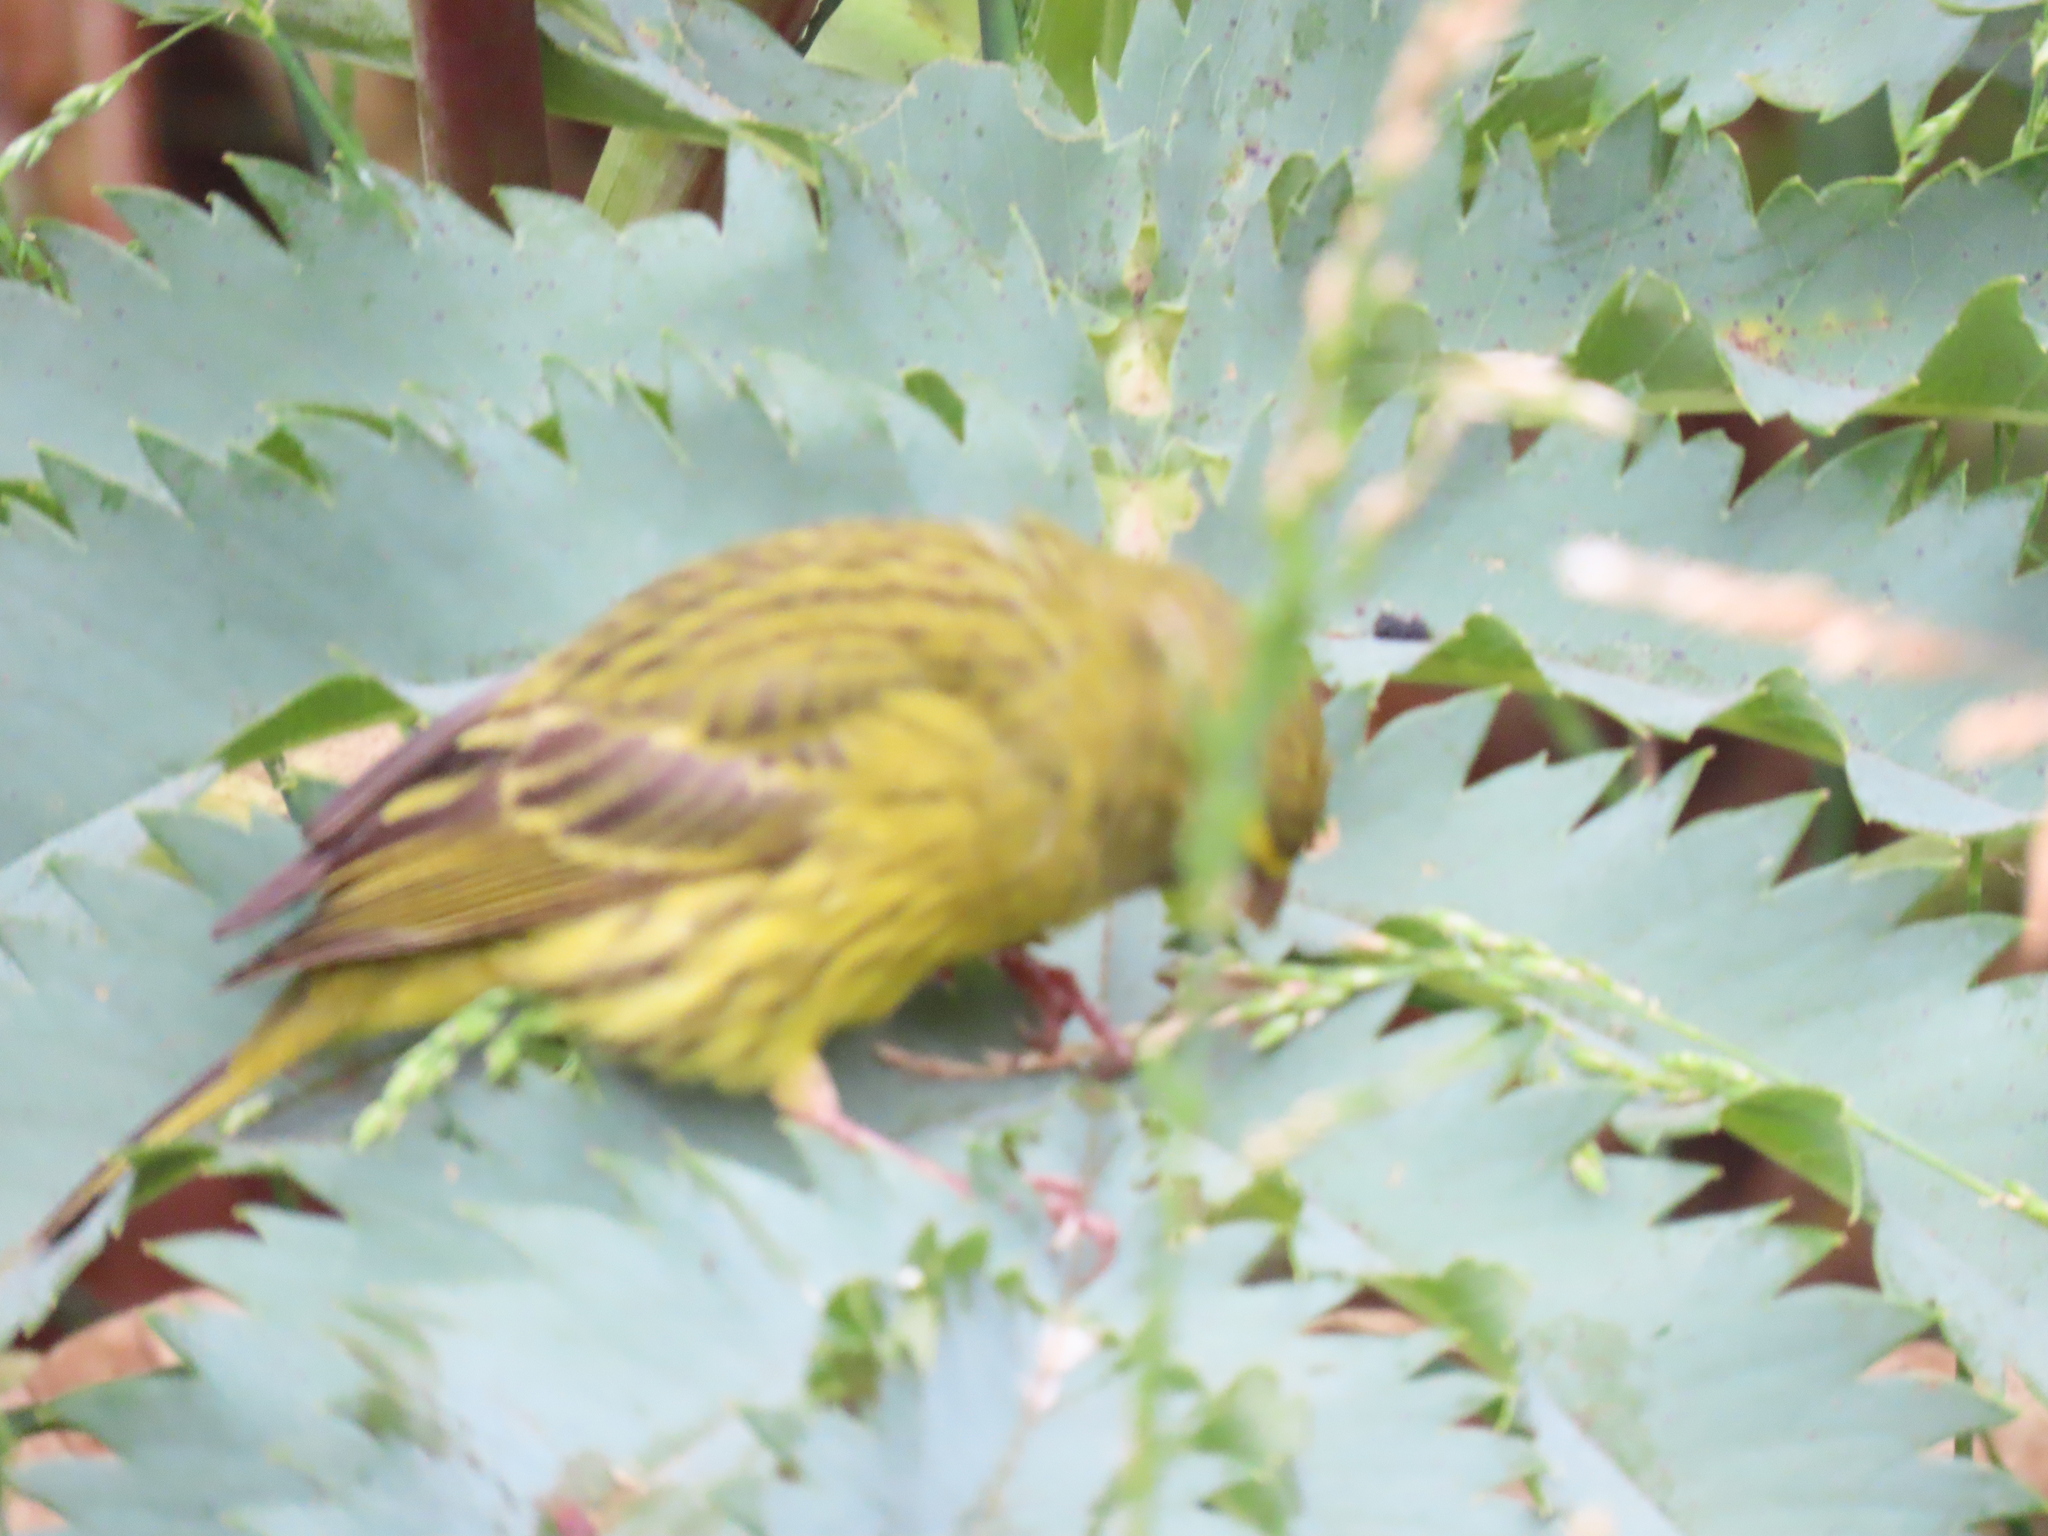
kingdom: Animalia
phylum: Chordata
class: Aves
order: Passeriformes
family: Fringillidae
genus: Crithagra
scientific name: Crithagra scotops
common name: Forest canary
